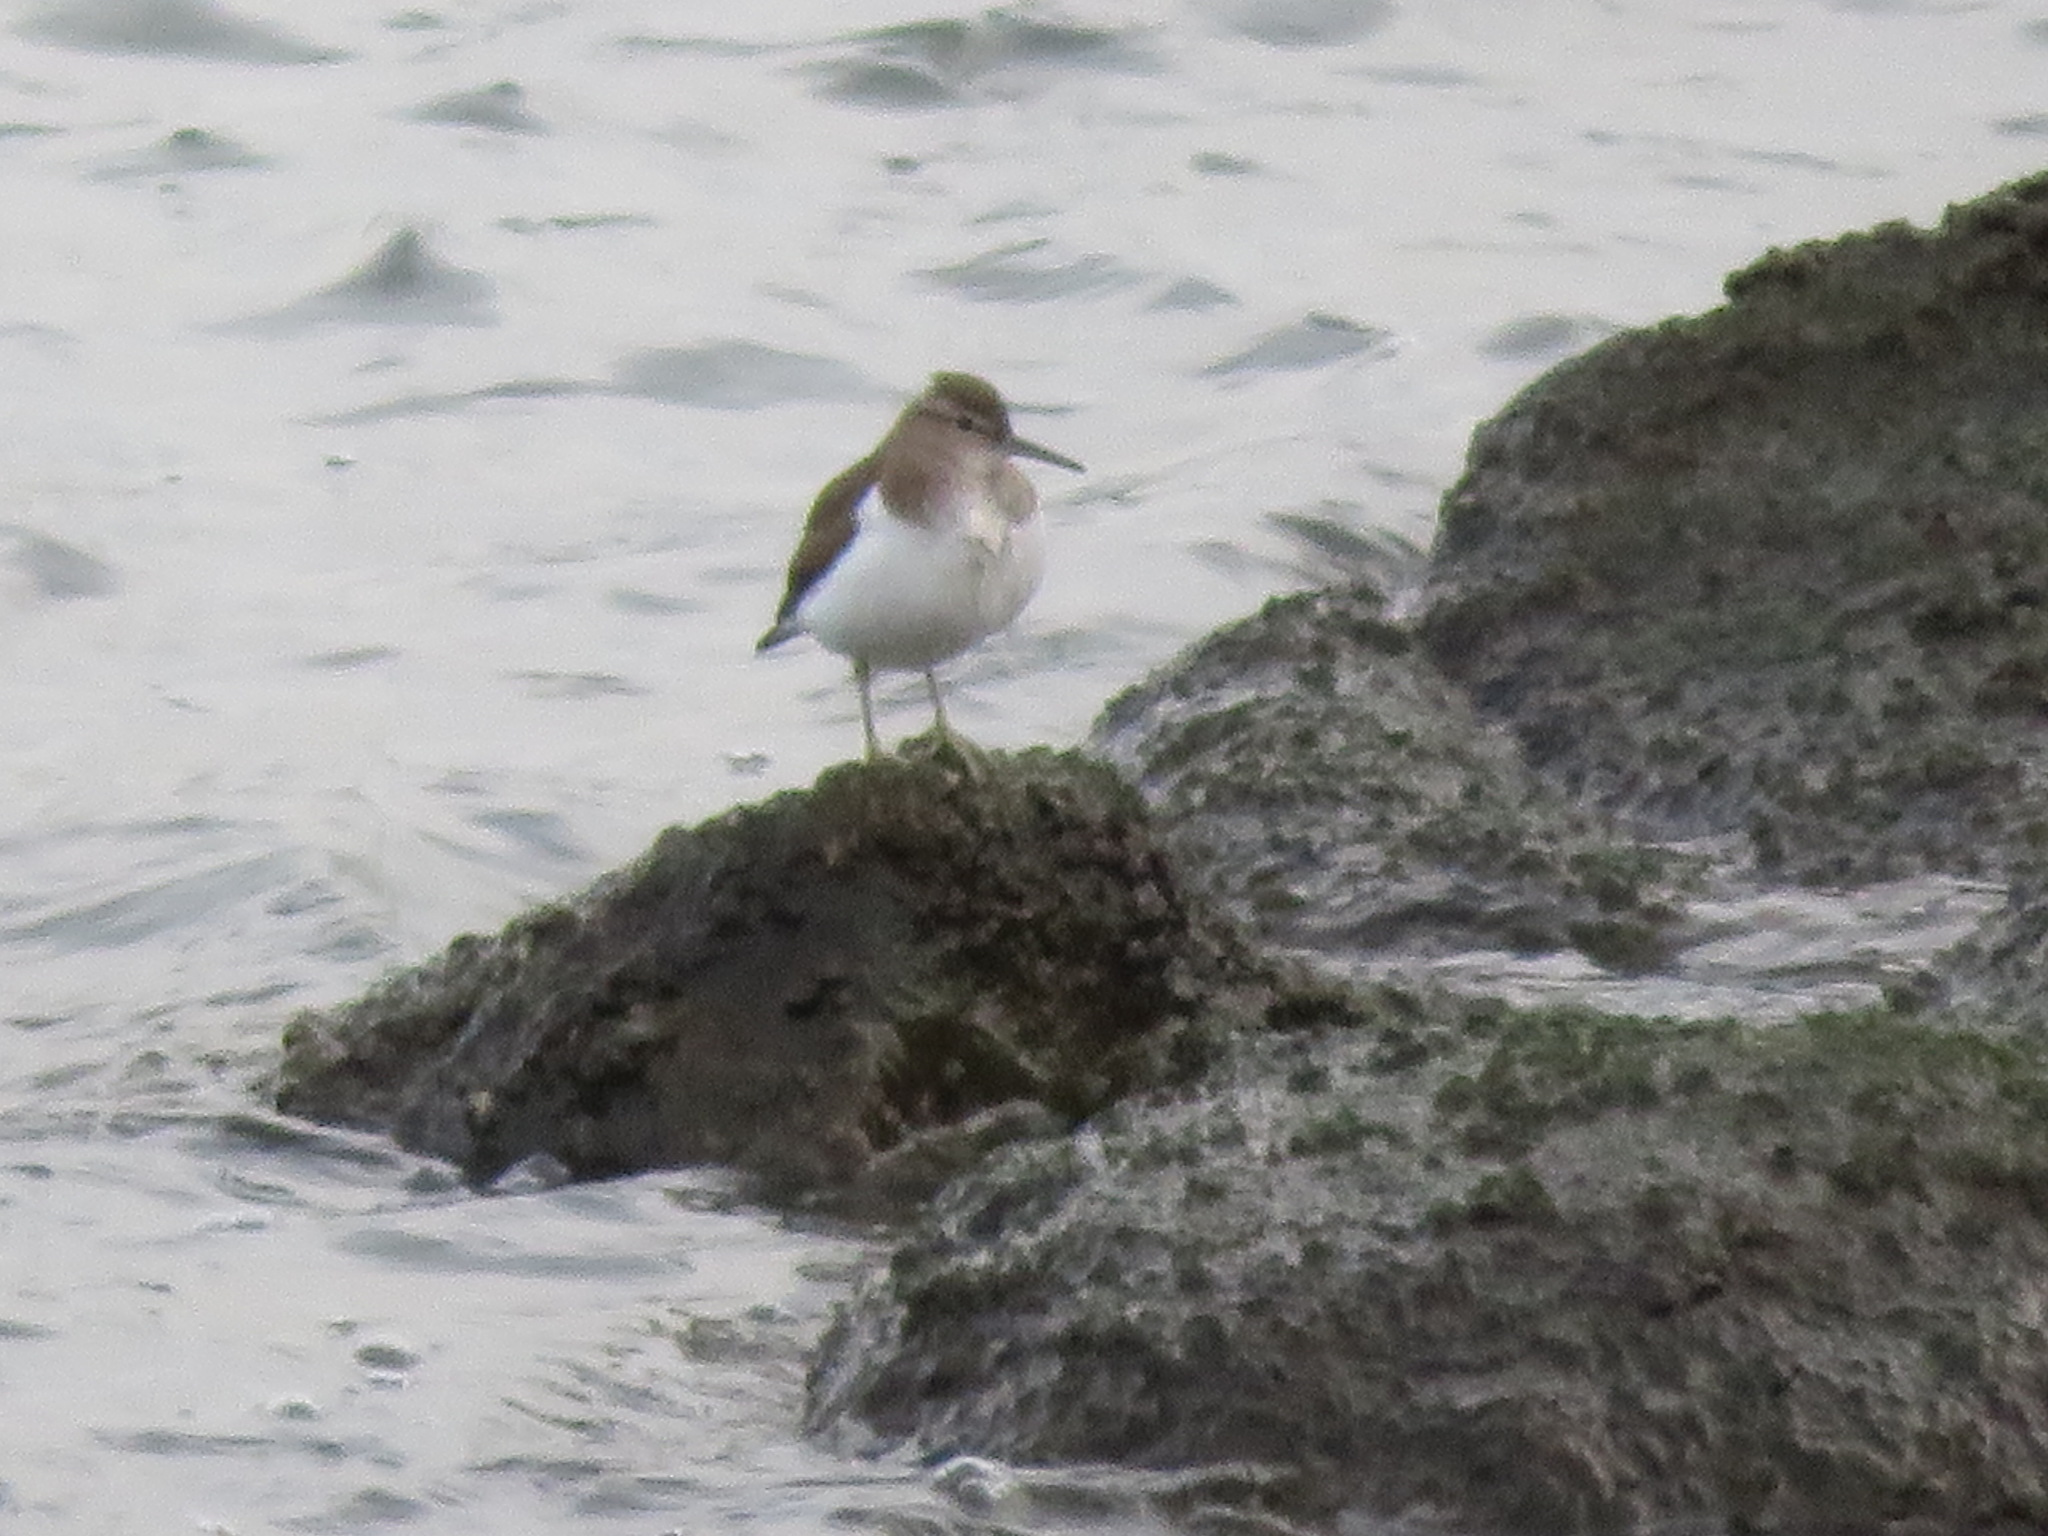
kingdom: Animalia
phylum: Chordata
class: Aves
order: Charadriiformes
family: Scolopacidae
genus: Actitis
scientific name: Actitis hypoleucos
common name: Common sandpiper
